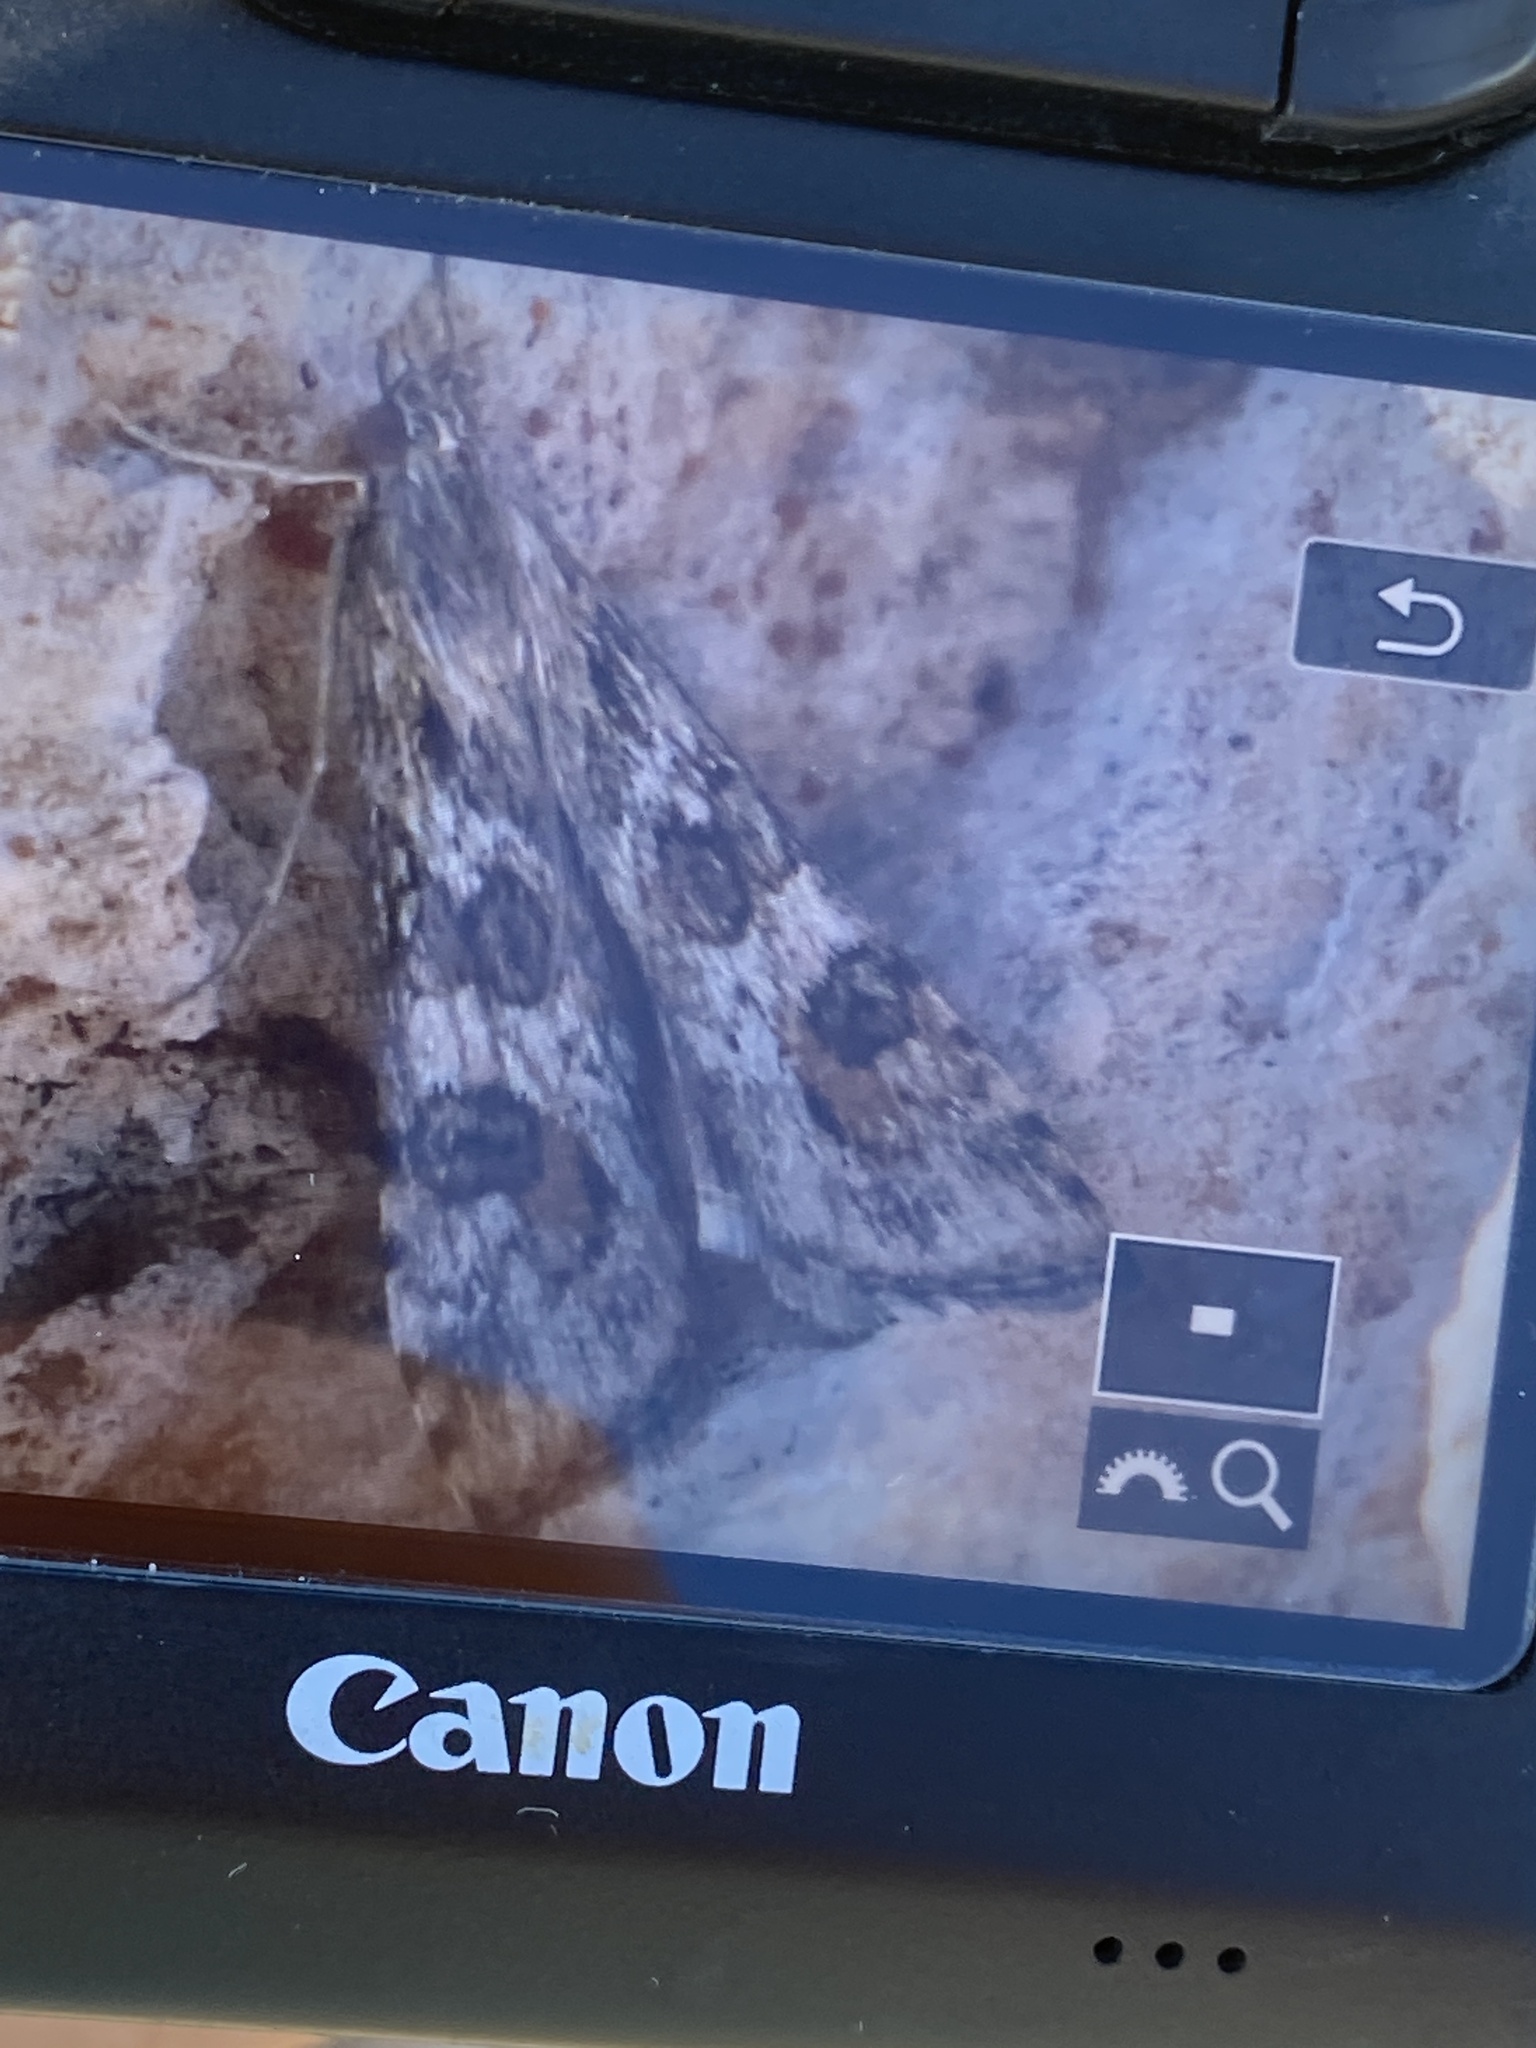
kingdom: Animalia
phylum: Arthropoda
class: Insecta
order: Lepidoptera
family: Crambidae
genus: Nomophila
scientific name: Nomophila noctuella
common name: Rush veneer
